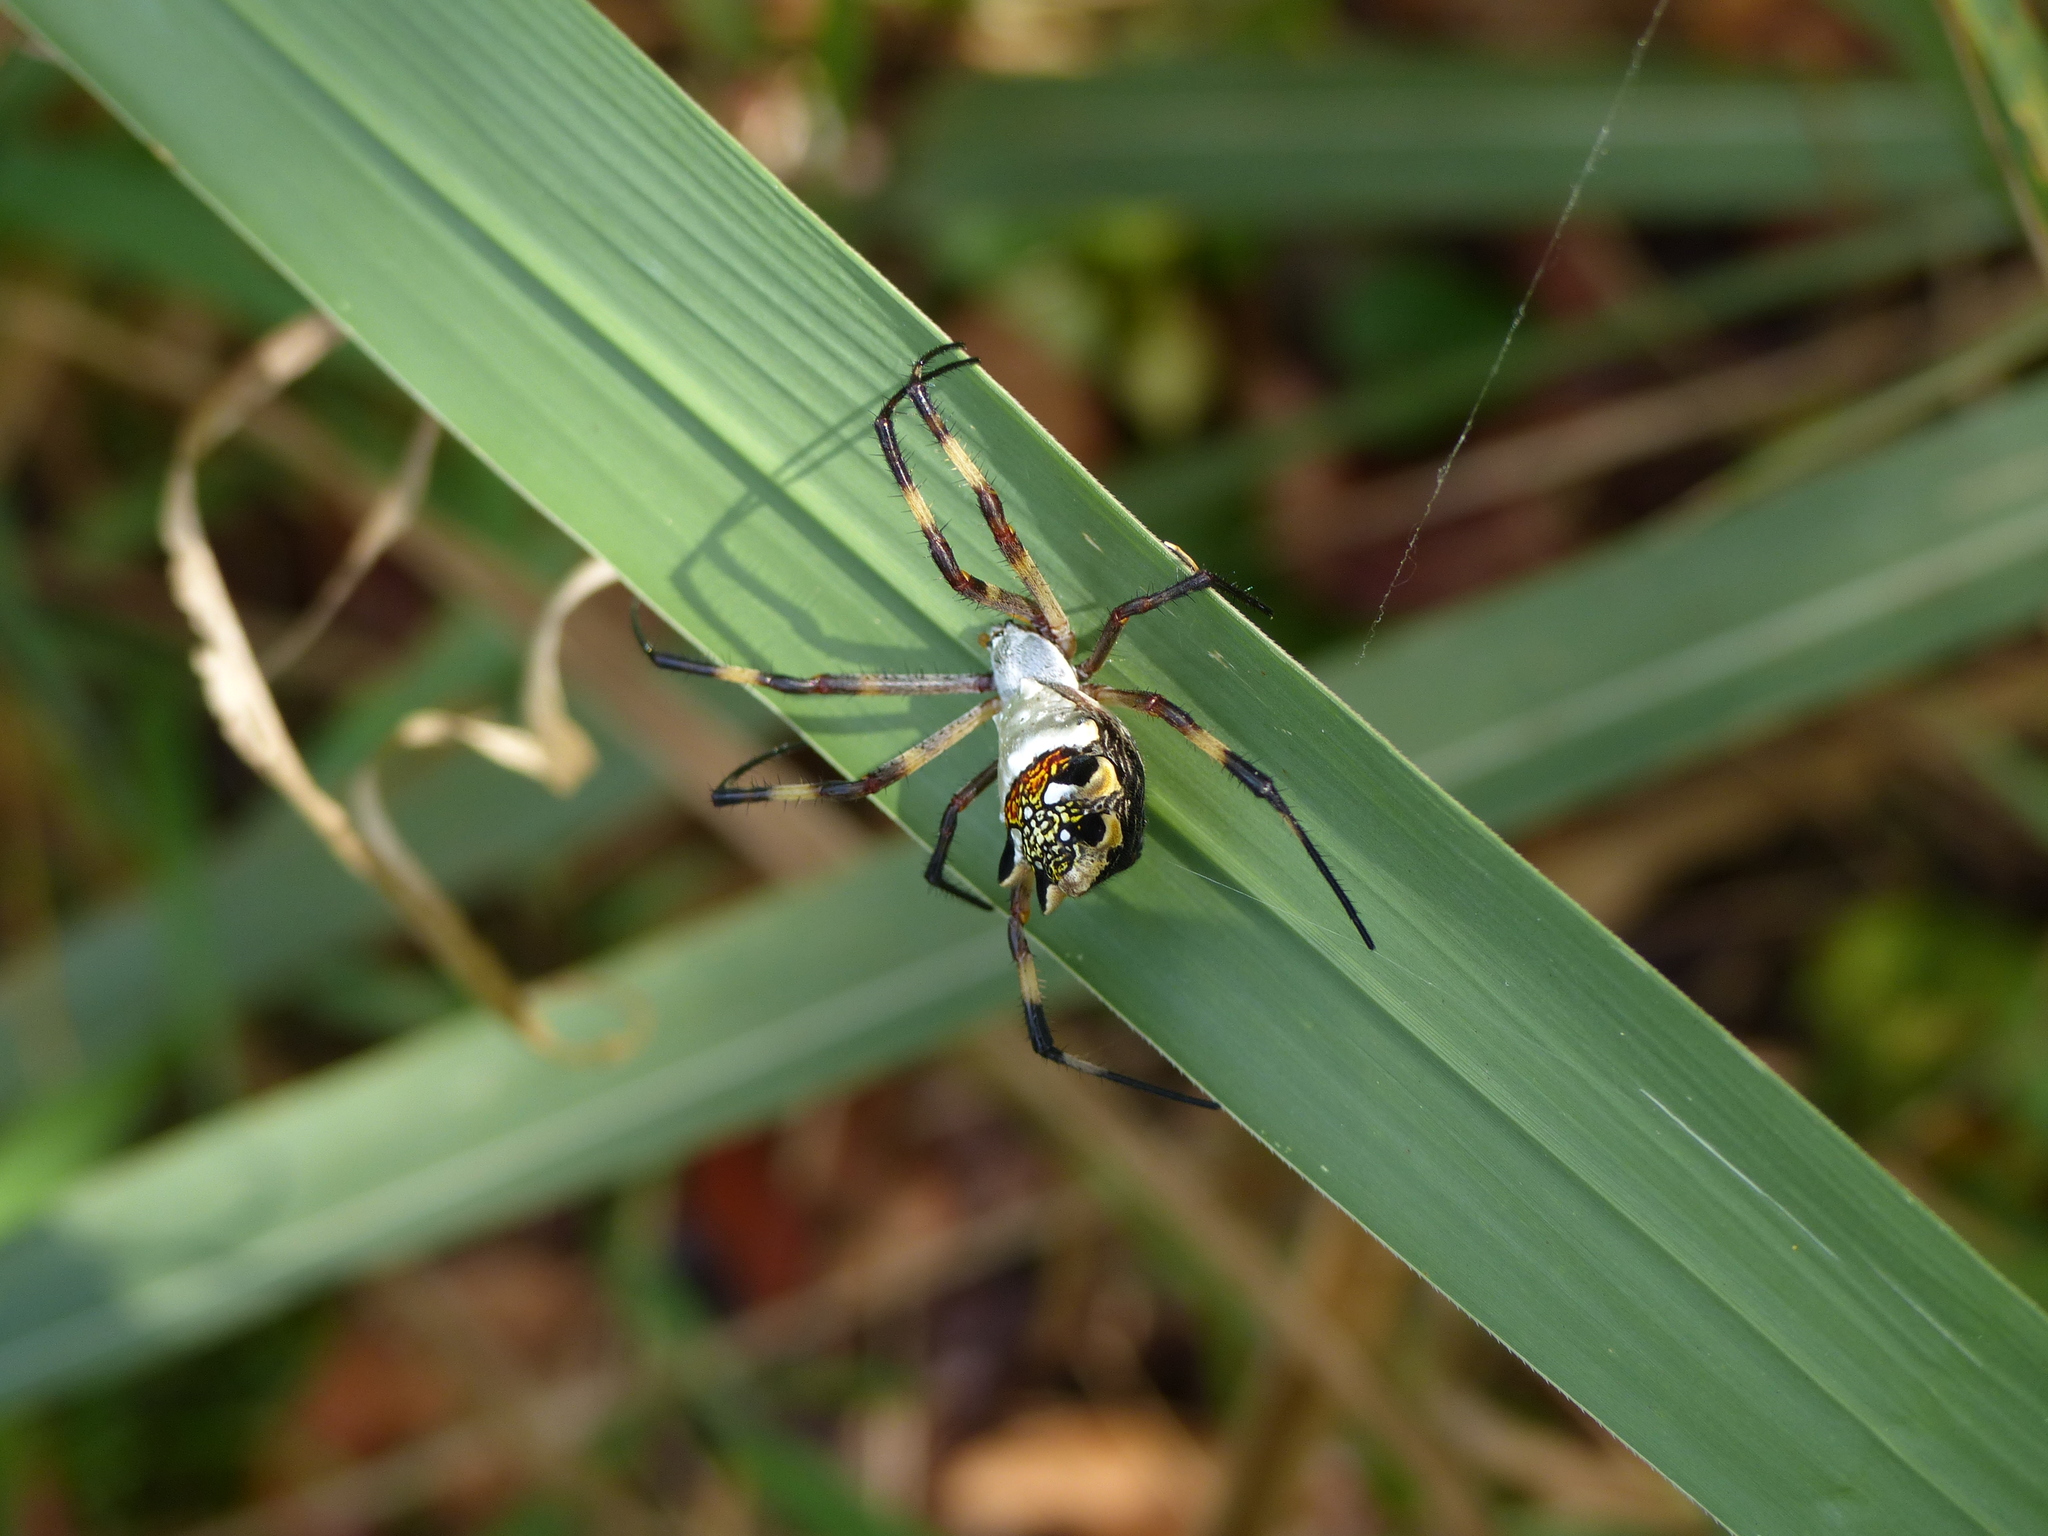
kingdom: Animalia
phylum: Arthropoda
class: Arachnida
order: Araneae
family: Araneidae
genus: Argiope
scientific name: Argiope argentata
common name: Orb weavers
